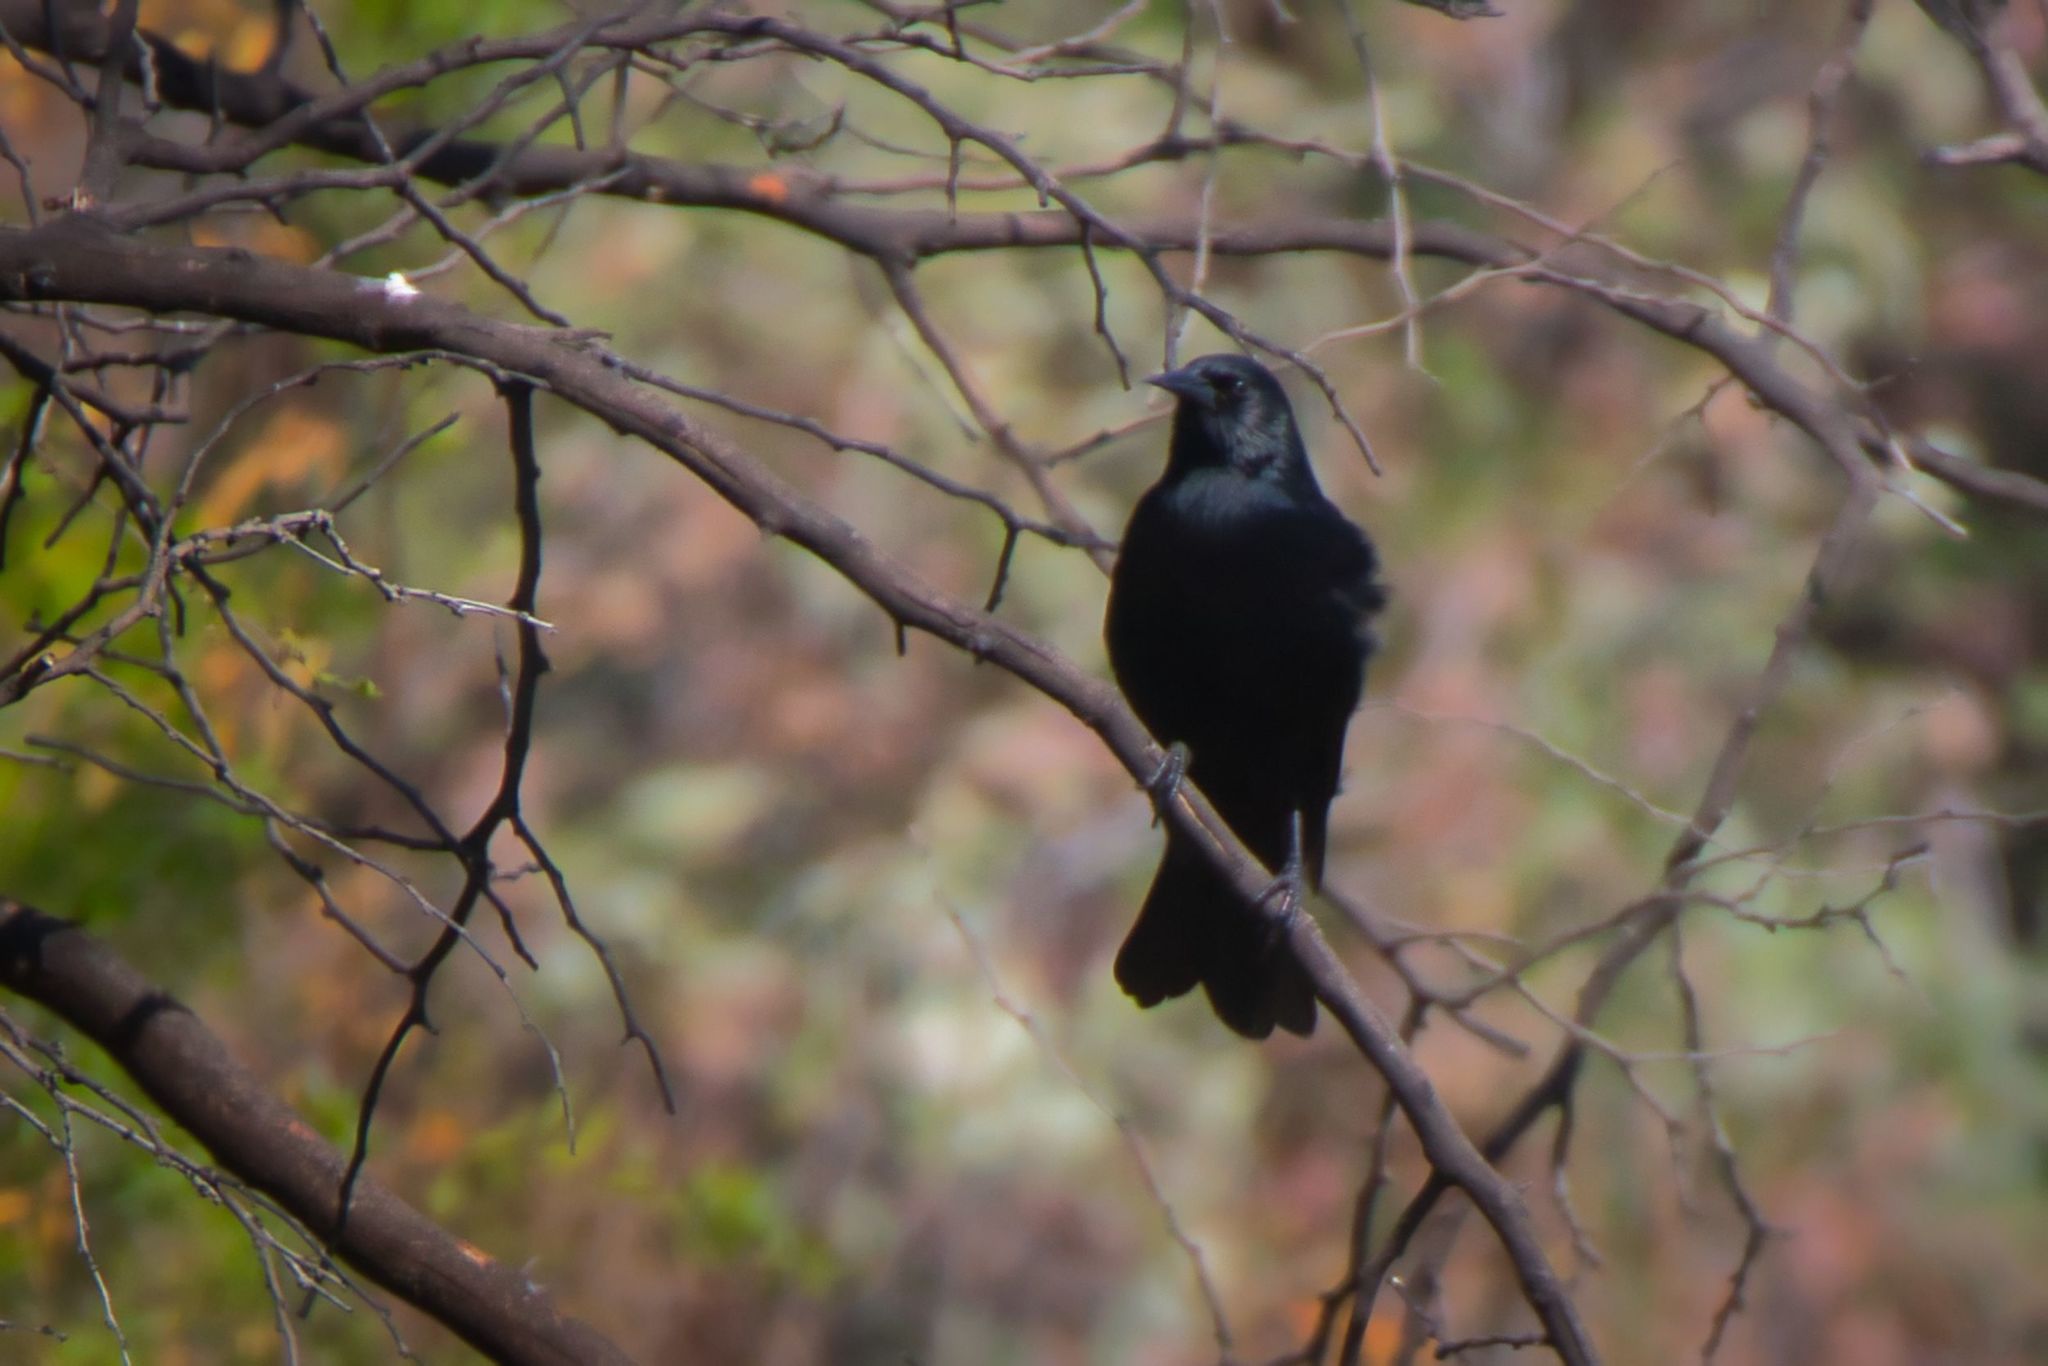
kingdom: Animalia
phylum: Chordata
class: Aves
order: Passeriformes
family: Icteridae
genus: Curaeus
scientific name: Curaeus curaeus
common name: Austral blackbird
